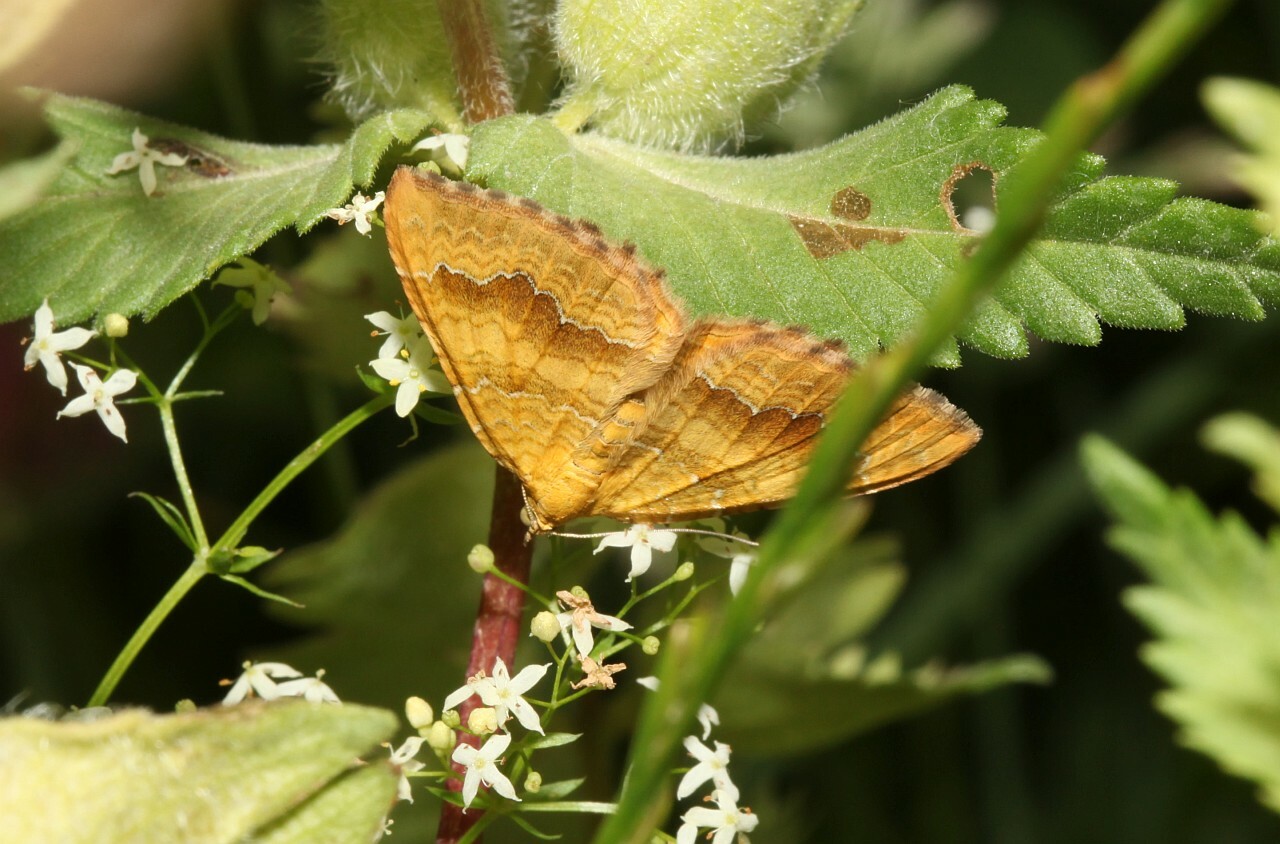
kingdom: Animalia
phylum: Arthropoda
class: Insecta
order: Lepidoptera
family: Geometridae
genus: Camptogramma
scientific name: Camptogramma bilineata
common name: Yellow shell
